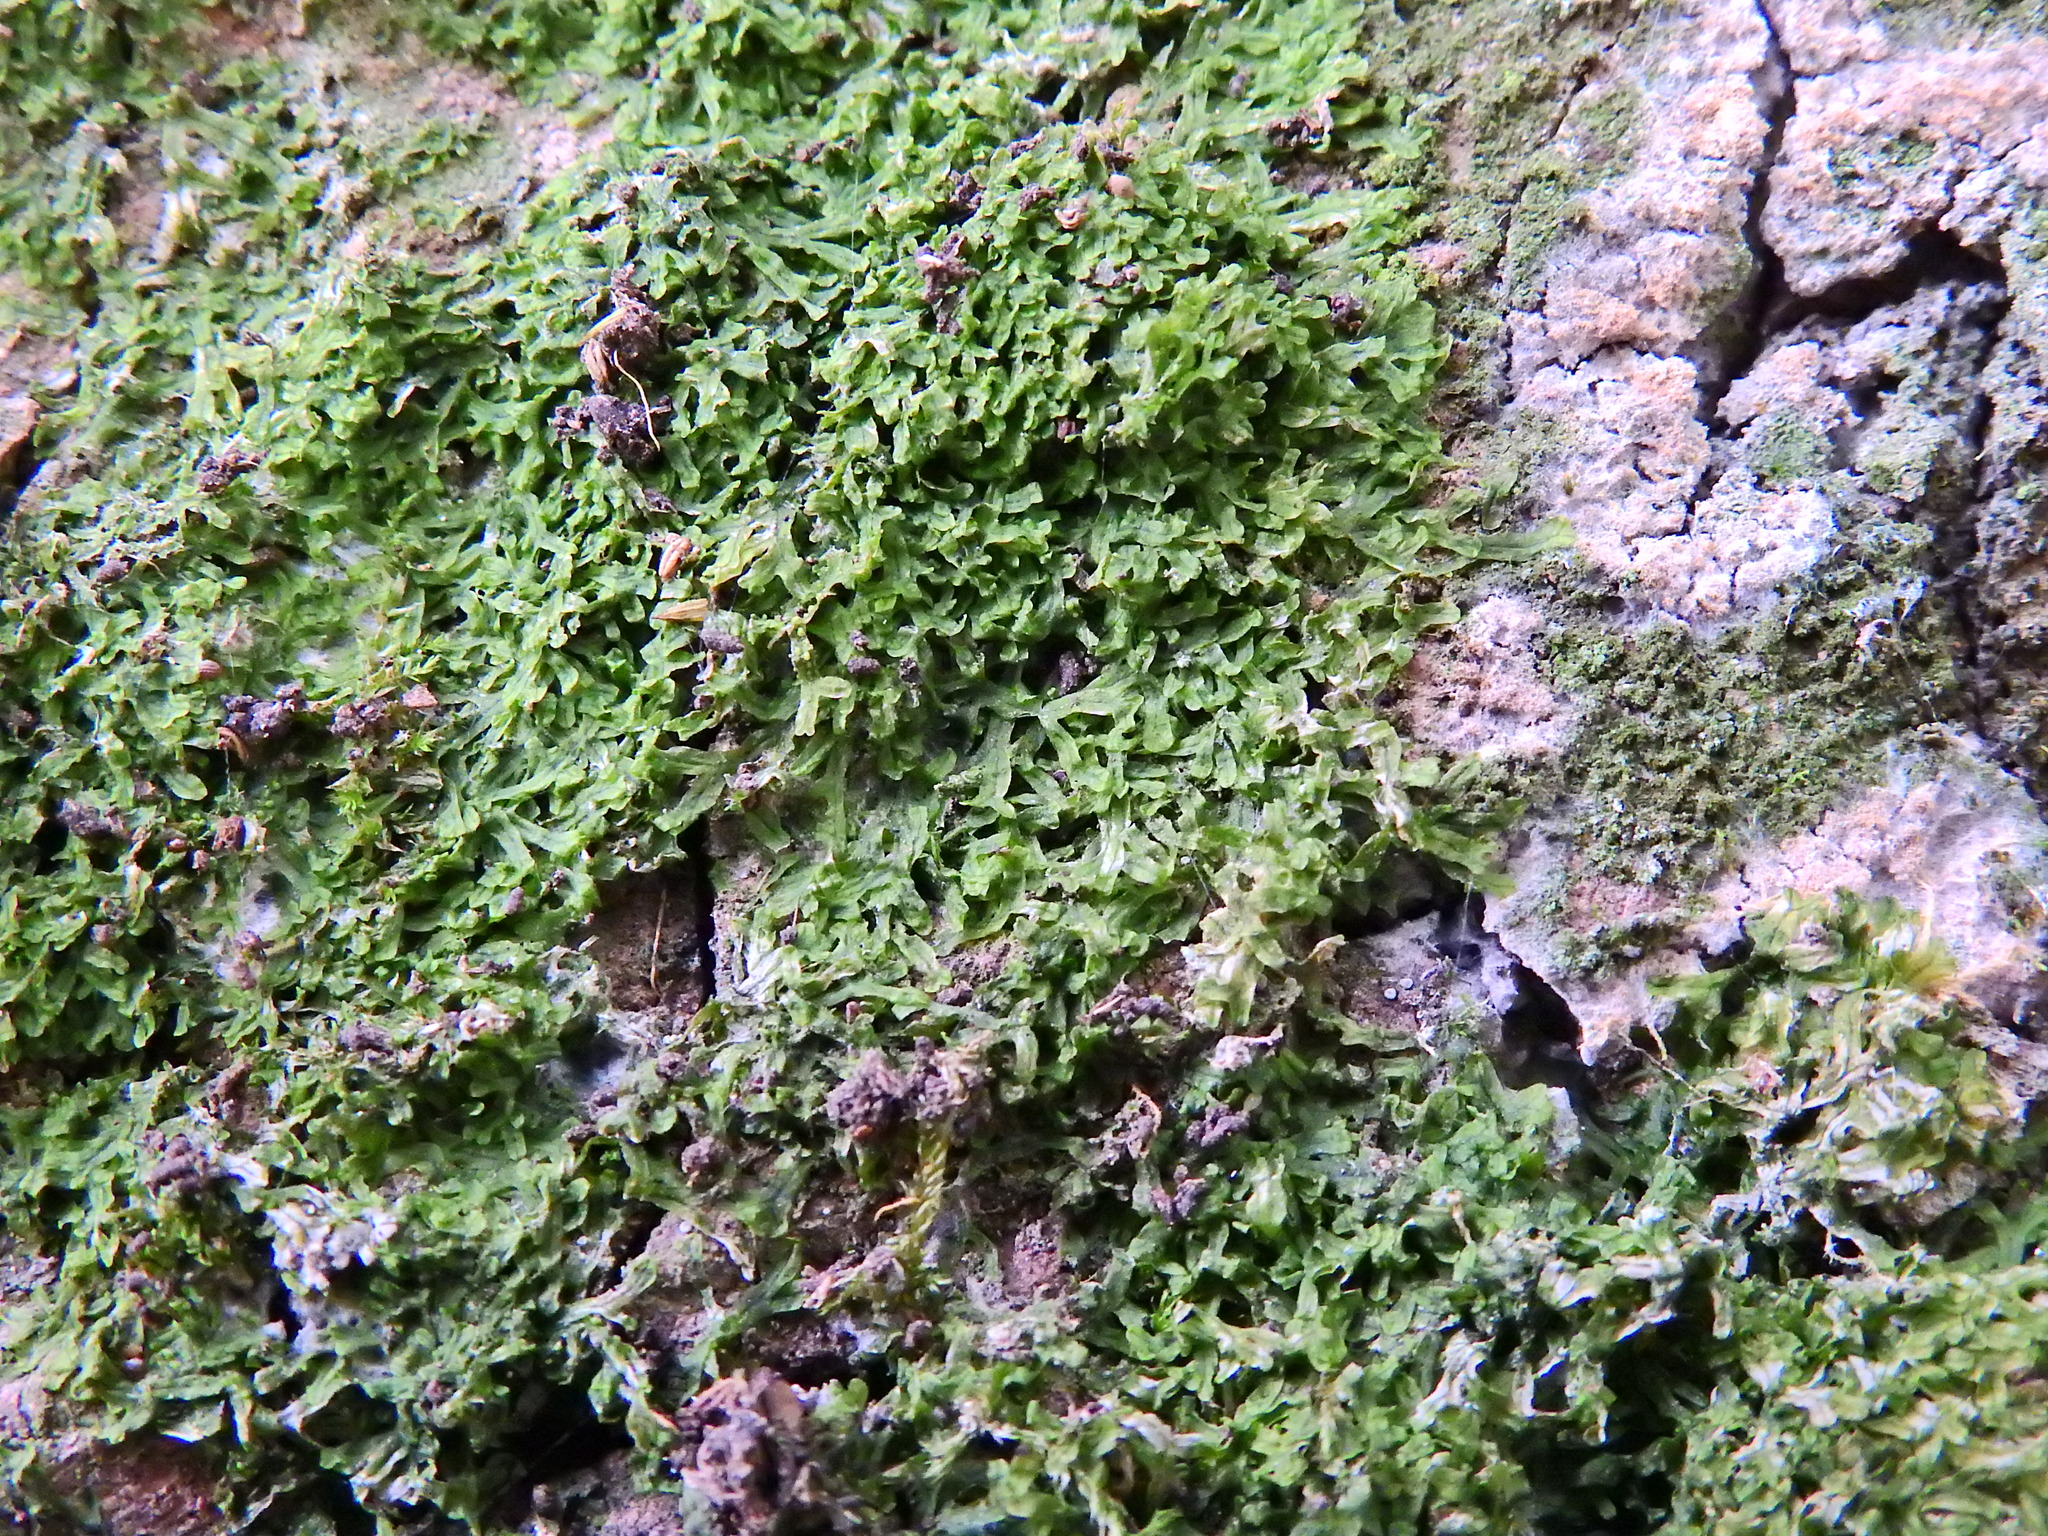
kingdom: Plantae
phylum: Marchantiophyta
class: Jungermanniopsida
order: Metzgeriales
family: Metzgeriaceae
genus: Metzgeria
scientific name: Metzgeria furcata
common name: Forked veilwort
